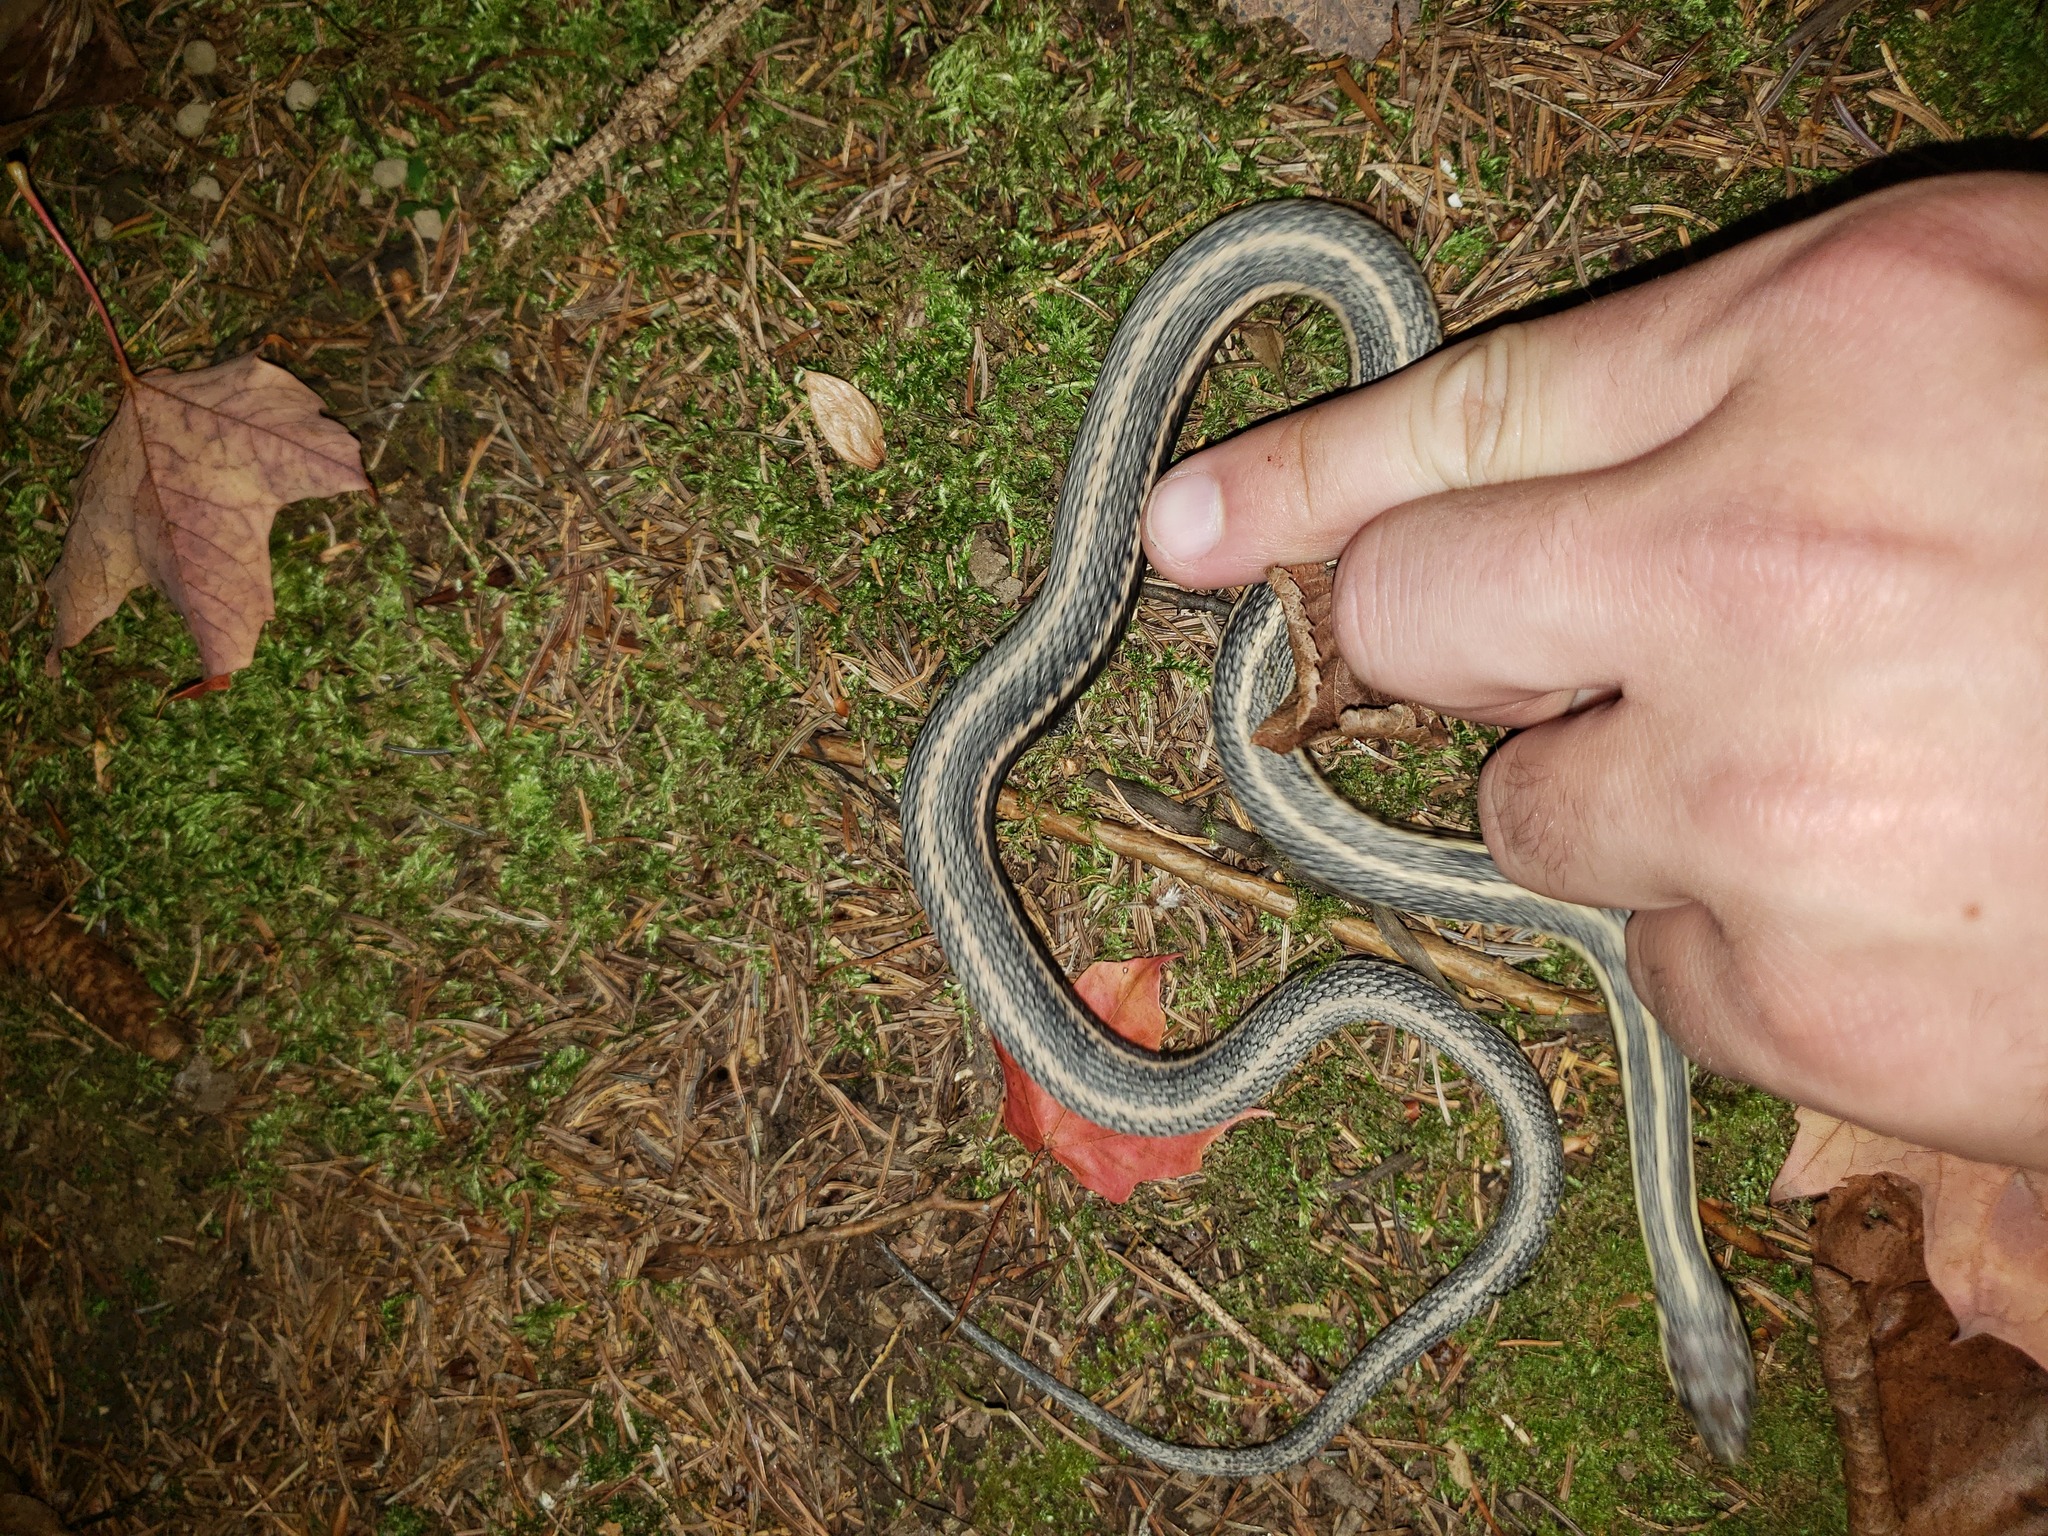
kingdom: Animalia
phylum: Chordata
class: Squamata
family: Colubridae
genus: Thamnophis
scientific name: Thamnophis sirtalis
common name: Common garter snake
